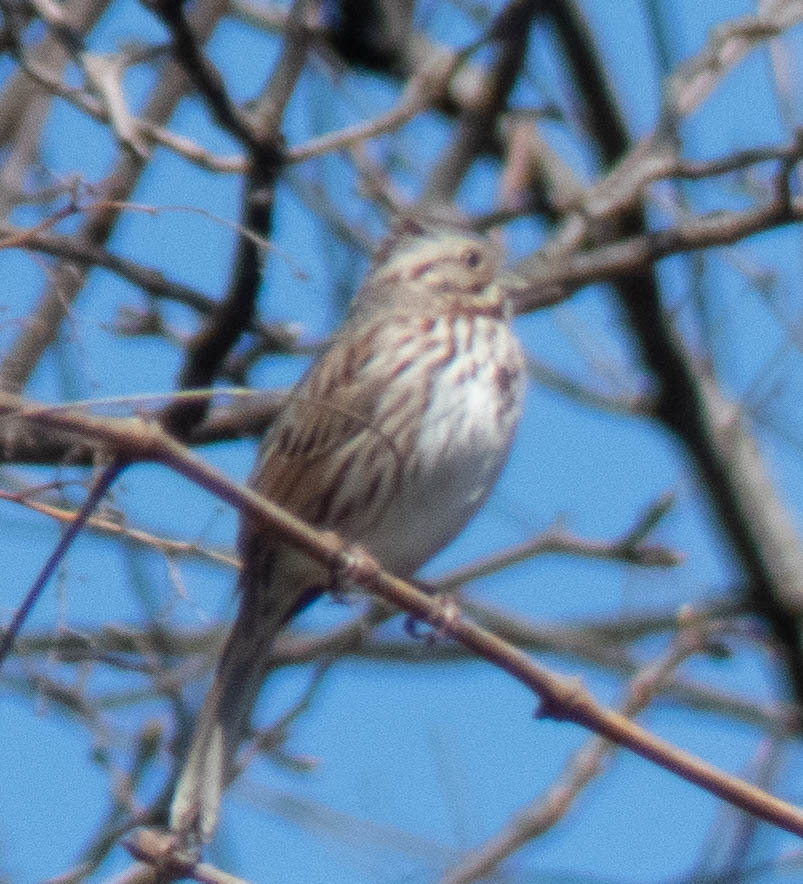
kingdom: Animalia
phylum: Chordata
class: Aves
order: Passeriformes
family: Passerellidae
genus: Melospiza
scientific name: Melospiza melodia
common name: Song sparrow
